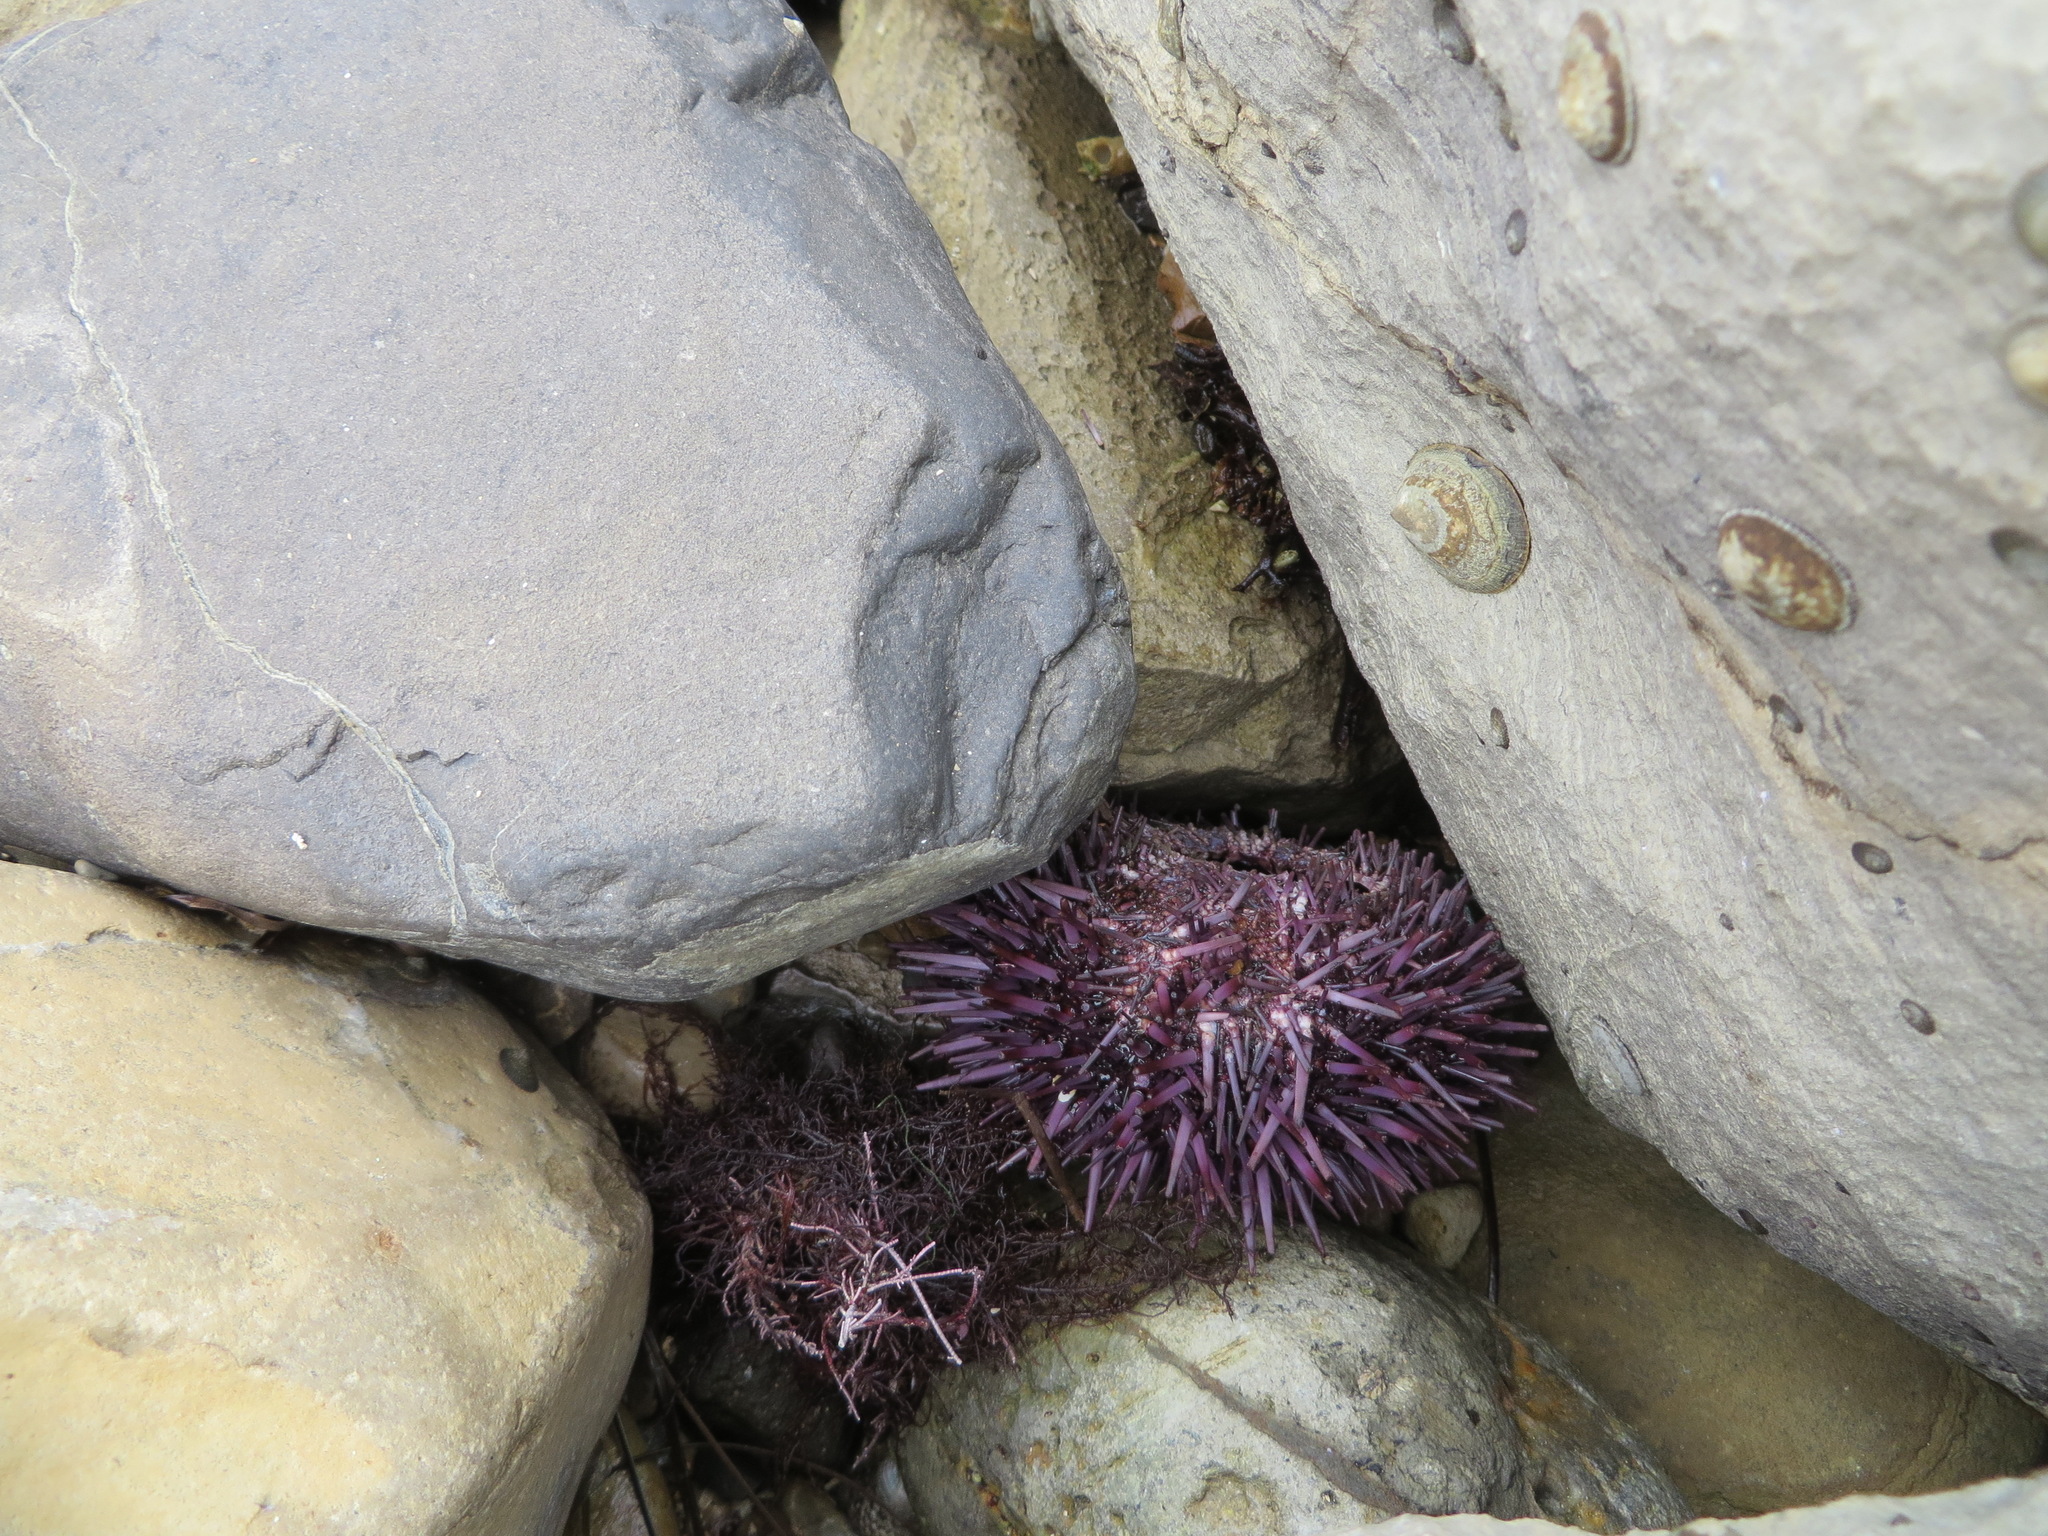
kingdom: Animalia
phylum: Echinodermata
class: Echinoidea
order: Camarodonta
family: Strongylocentrotidae
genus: Strongylocentrotus
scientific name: Strongylocentrotus purpuratus
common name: Purple sea urchin
